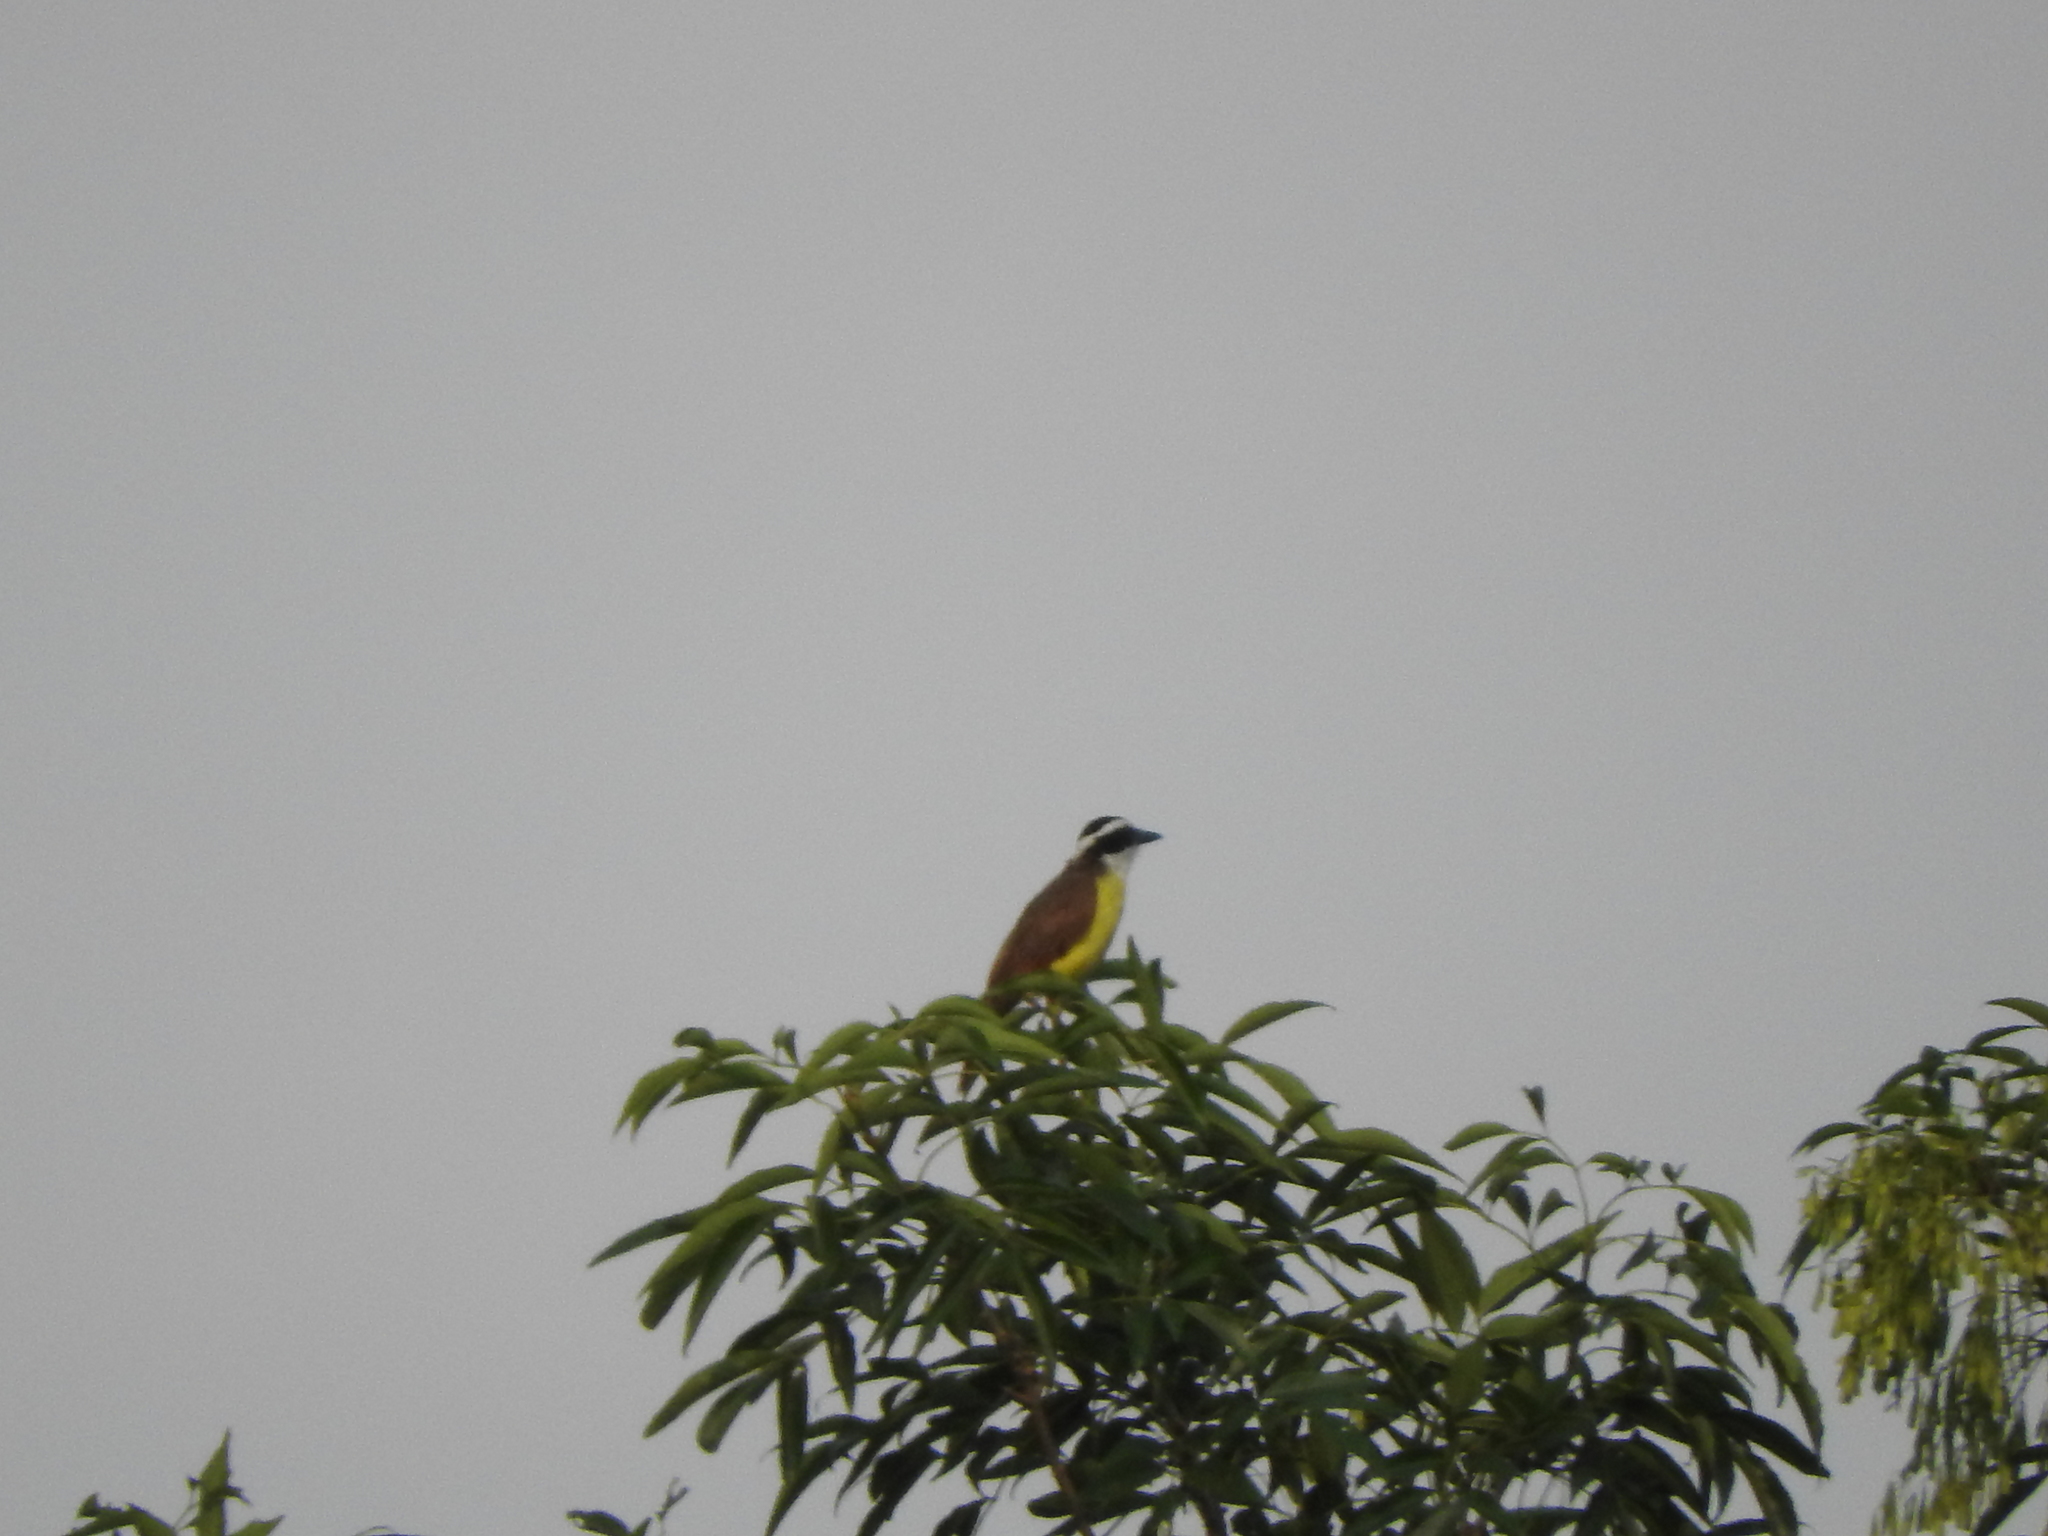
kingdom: Animalia
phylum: Chordata
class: Aves
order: Passeriformes
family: Tyrannidae
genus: Pitangus
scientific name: Pitangus sulphuratus
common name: Great kiskadee
